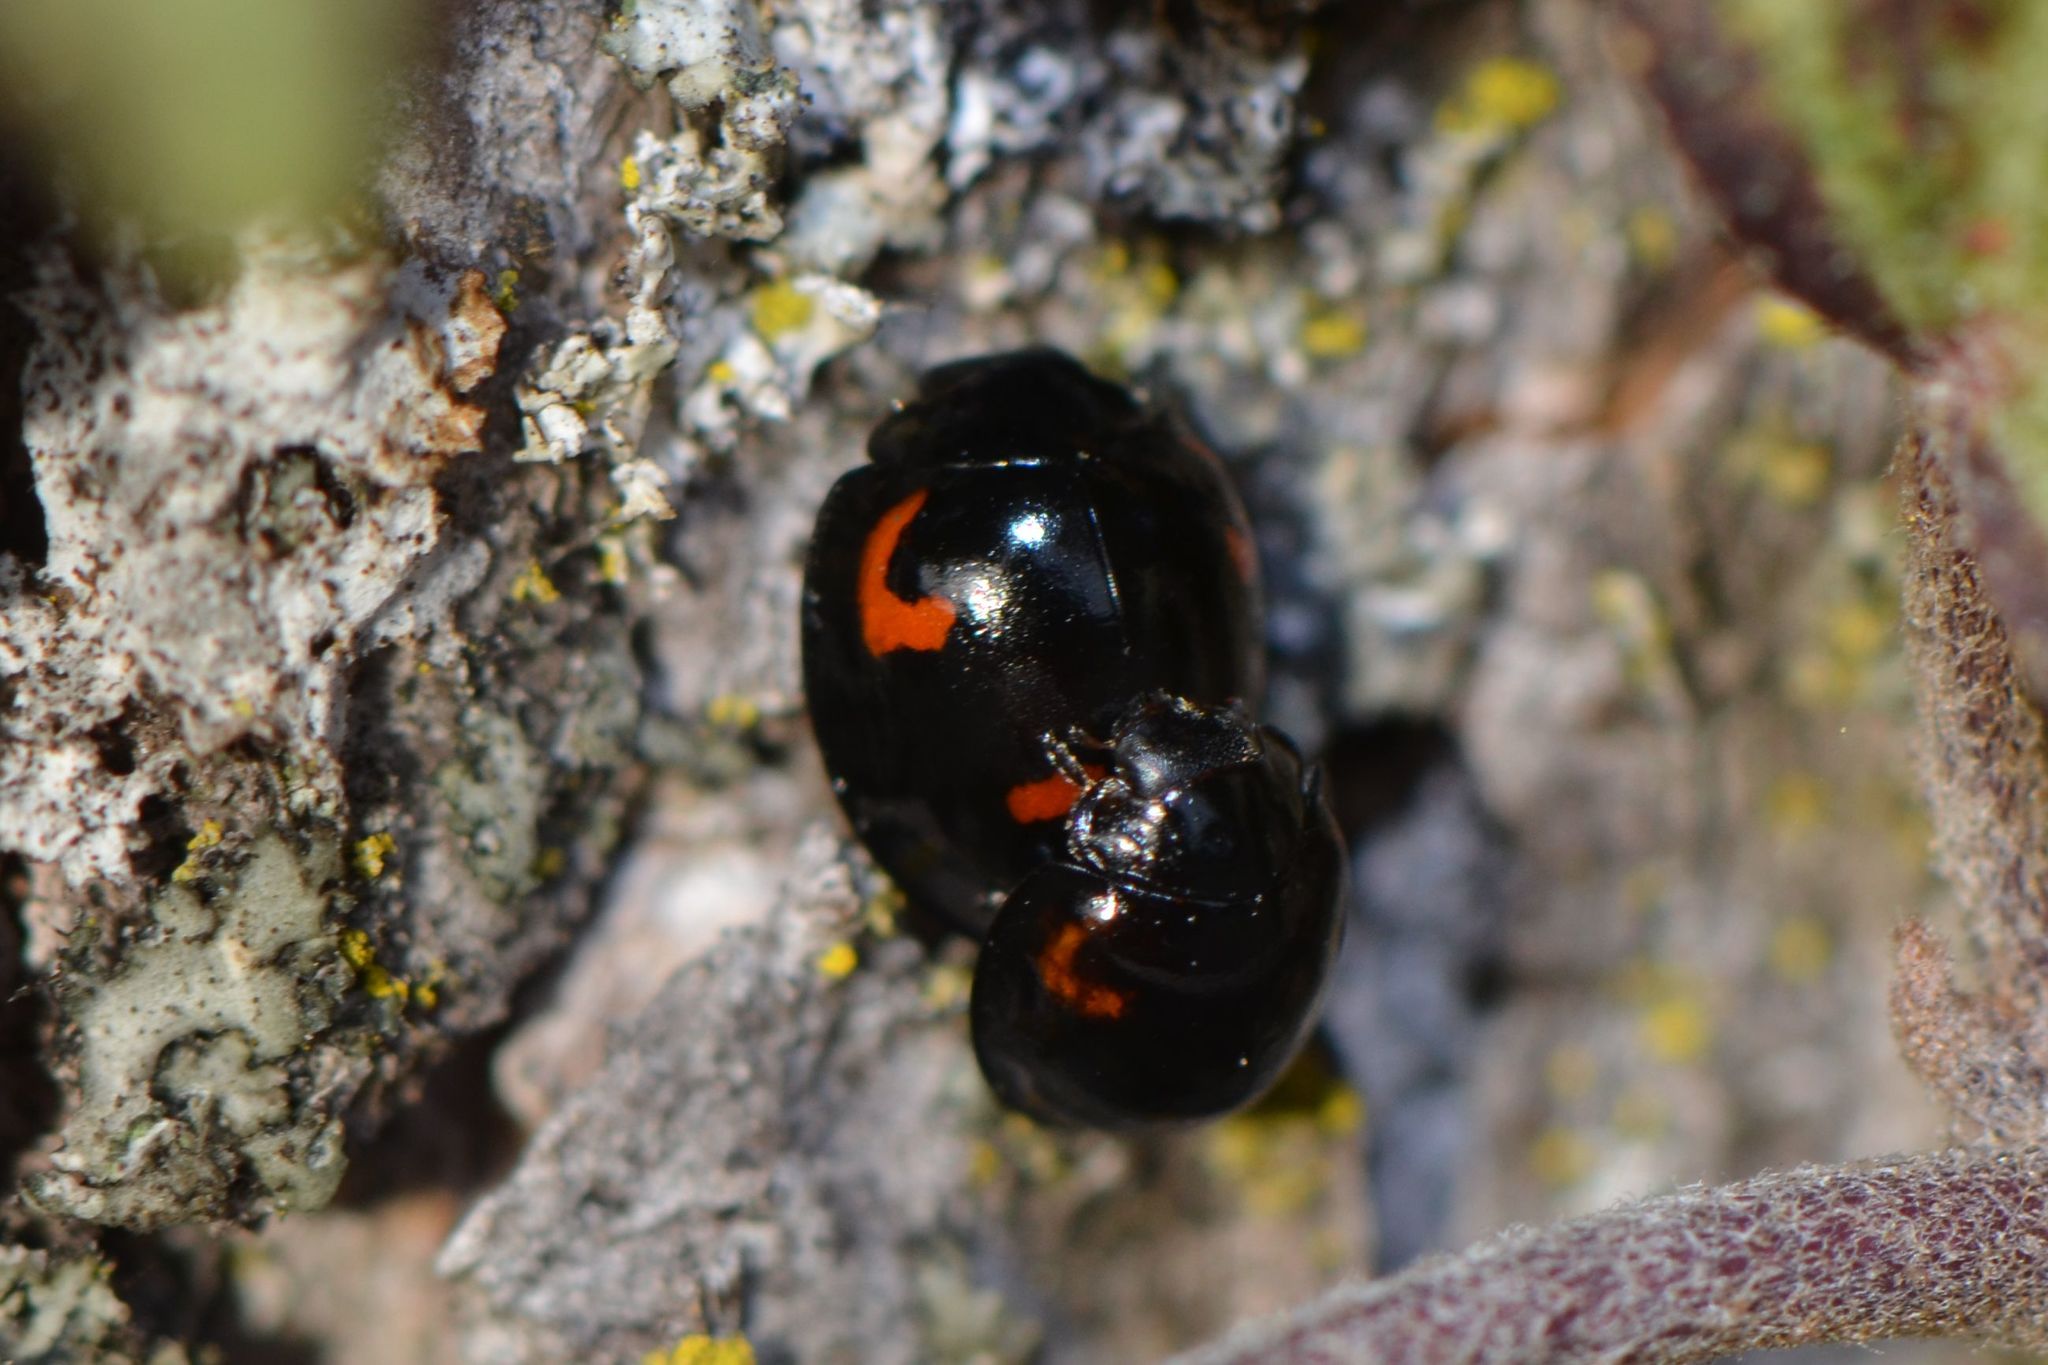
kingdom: Animalia
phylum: Arthropoda
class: Insecta
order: Coleoptera
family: Coccinellidae
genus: Brumus
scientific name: Brumus quadripustulatus
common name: Ladybird beetle
